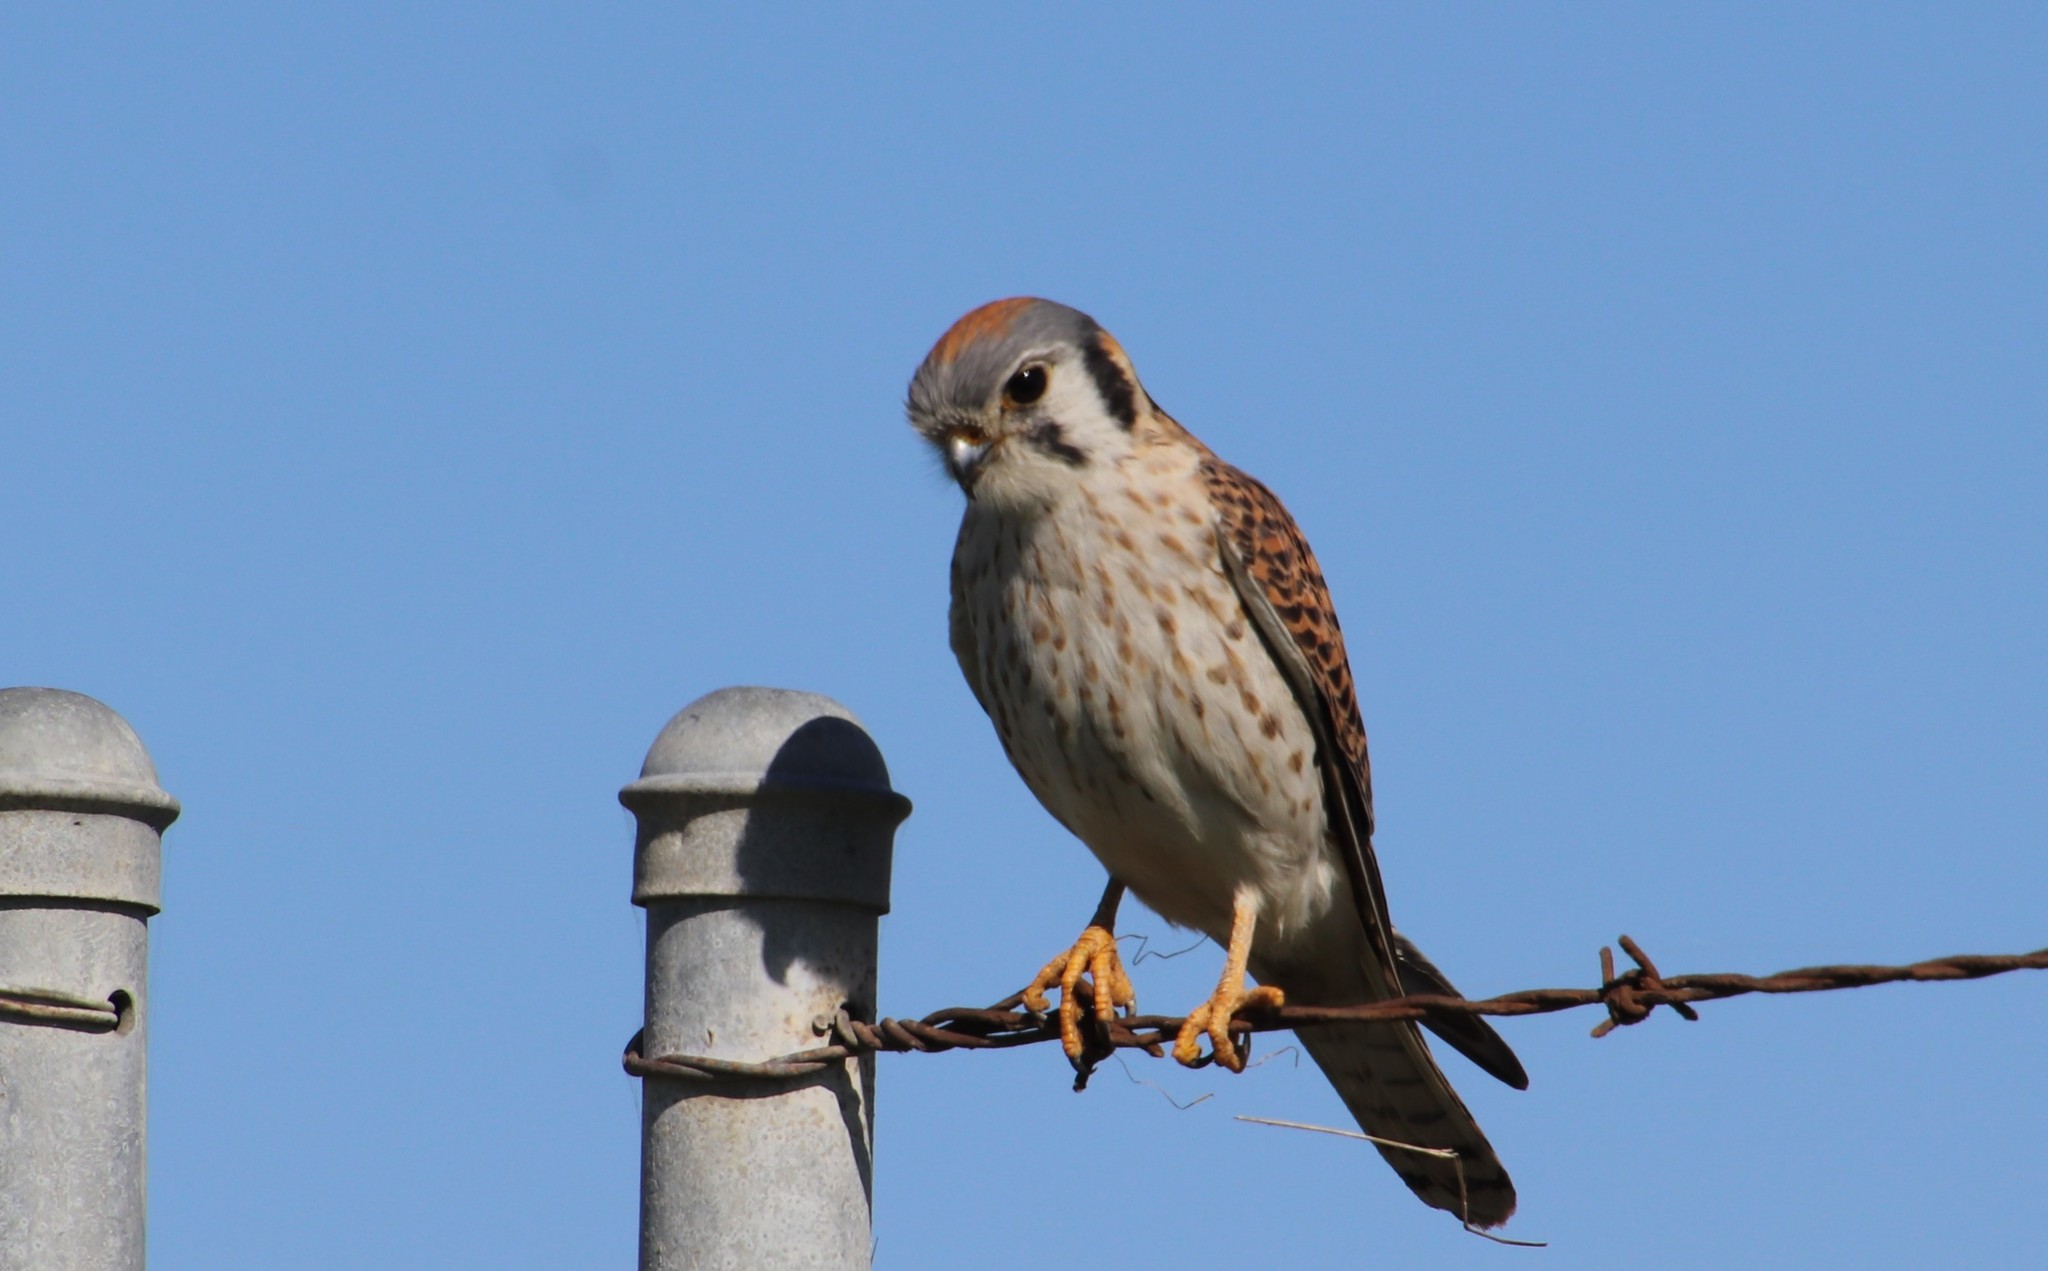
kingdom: Animalia
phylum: Chordata
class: Aves
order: Falconiformes
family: Falconidae
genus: Falco
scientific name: Falco sparverius
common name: American kestrel
